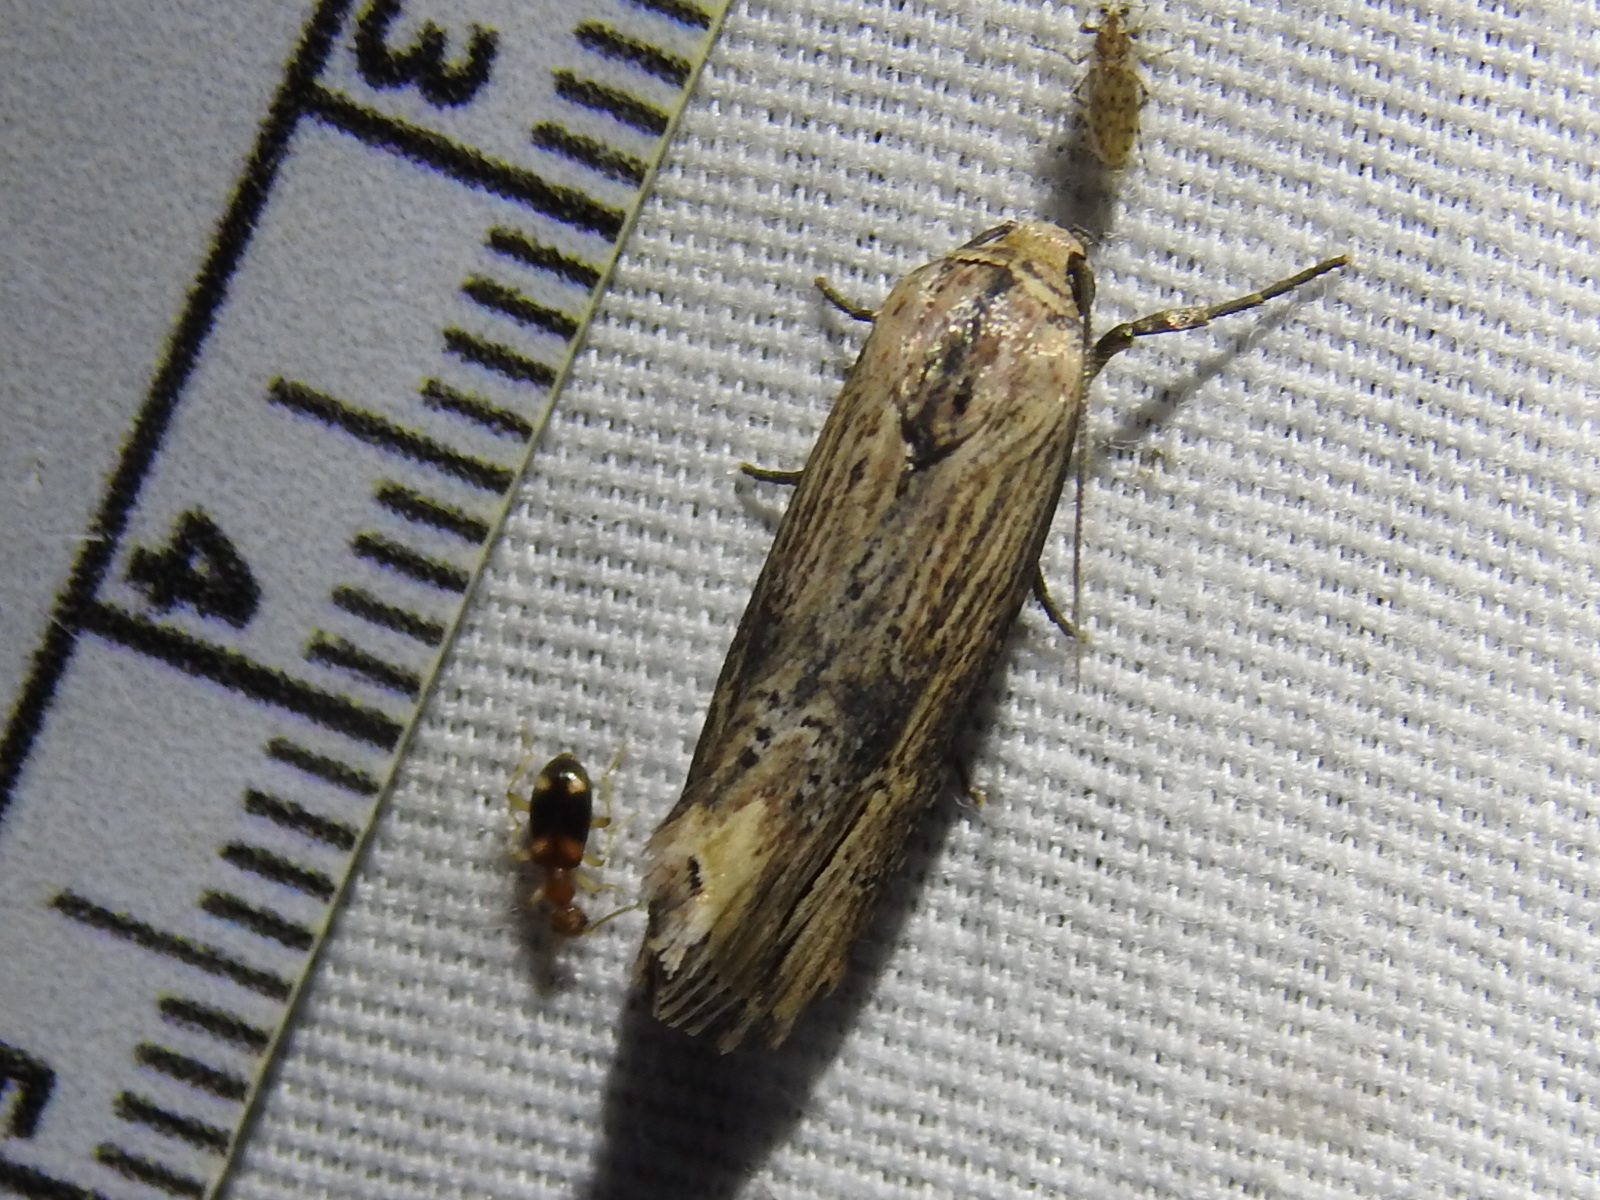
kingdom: Animalia
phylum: Arthropoda
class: Insecta
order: Lepidoptera
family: Noctuidae
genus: Crambodes
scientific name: Crambodes talidiformis
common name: Verbena moth
